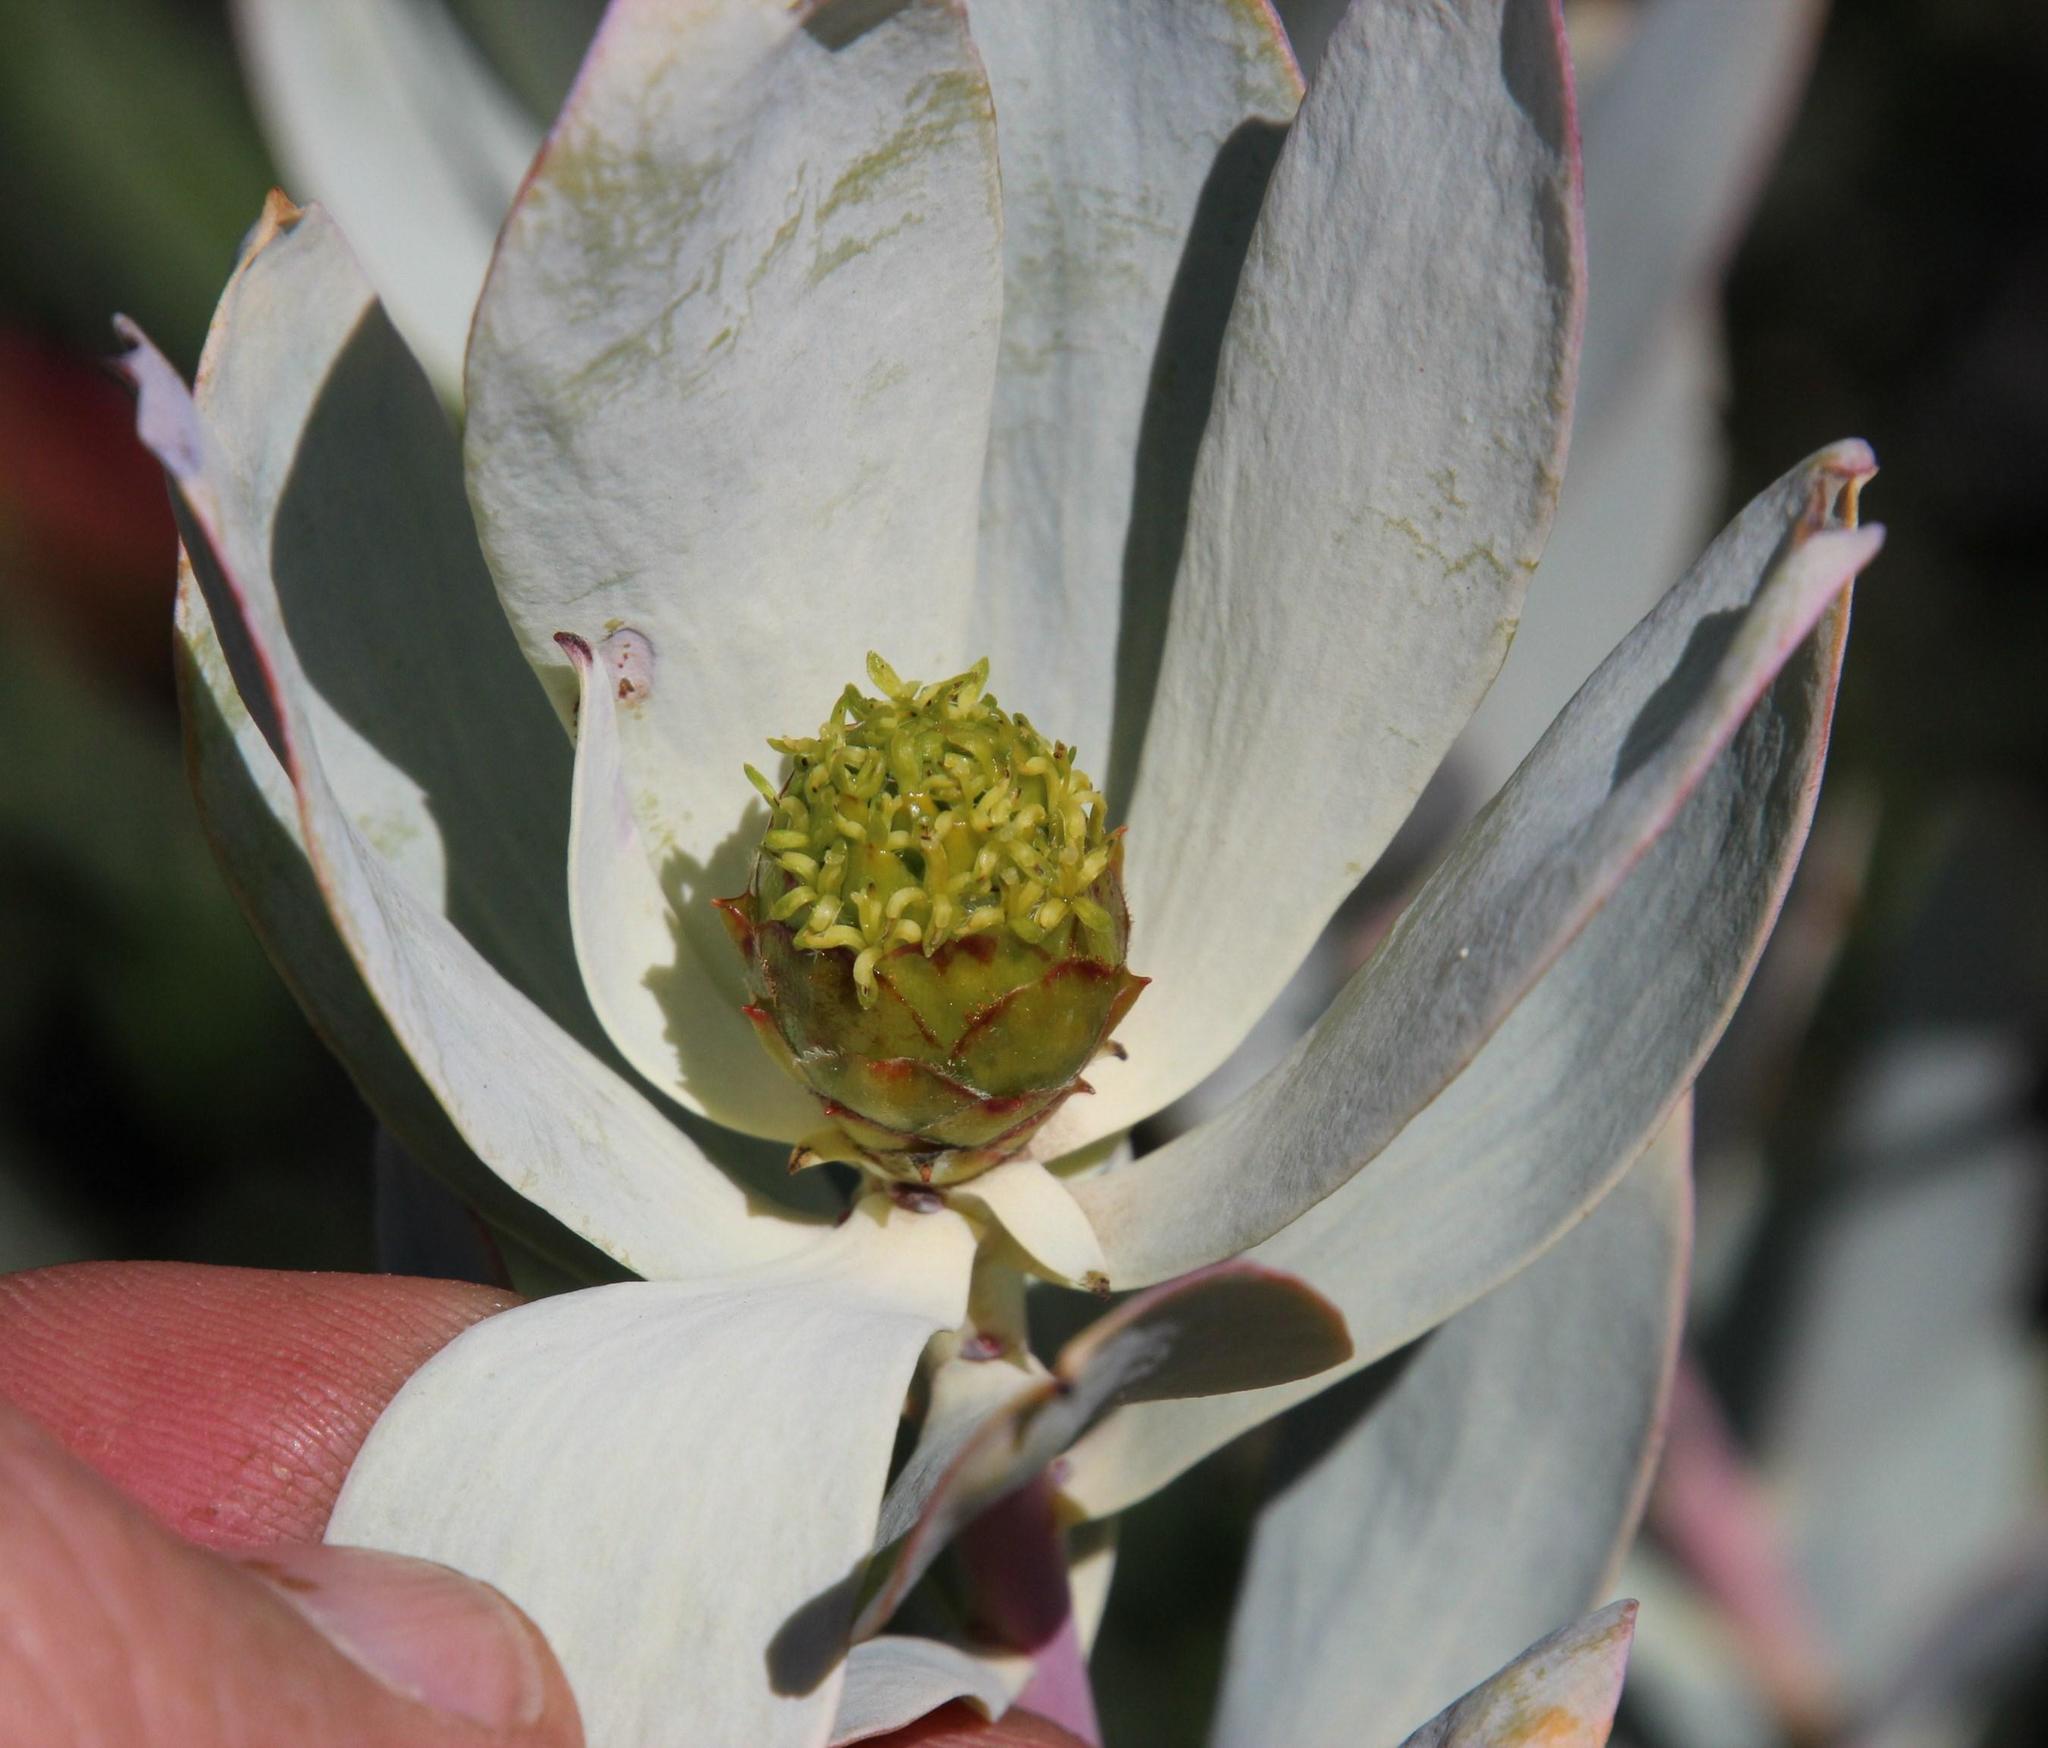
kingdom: Plantae
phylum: Tracheophyta
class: Magnoliopsida
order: Proteales
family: Proteaceae
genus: Leucadendron
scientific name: Leucadendron loranthifolium
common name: Green-flower sunbush
